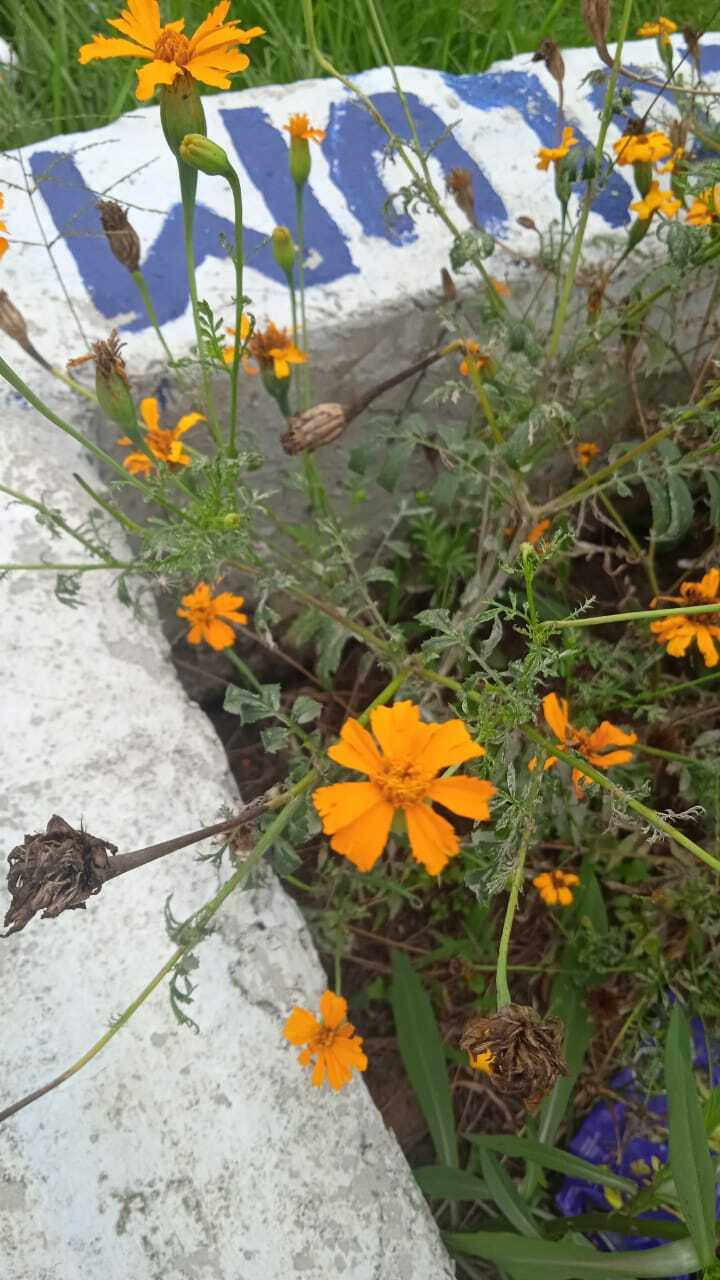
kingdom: Plantae
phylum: Tracheophyta
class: Magnoliopsida
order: Asterales
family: Asteraceae
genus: Tagetes
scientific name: Tagetes erecta
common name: African marigold
